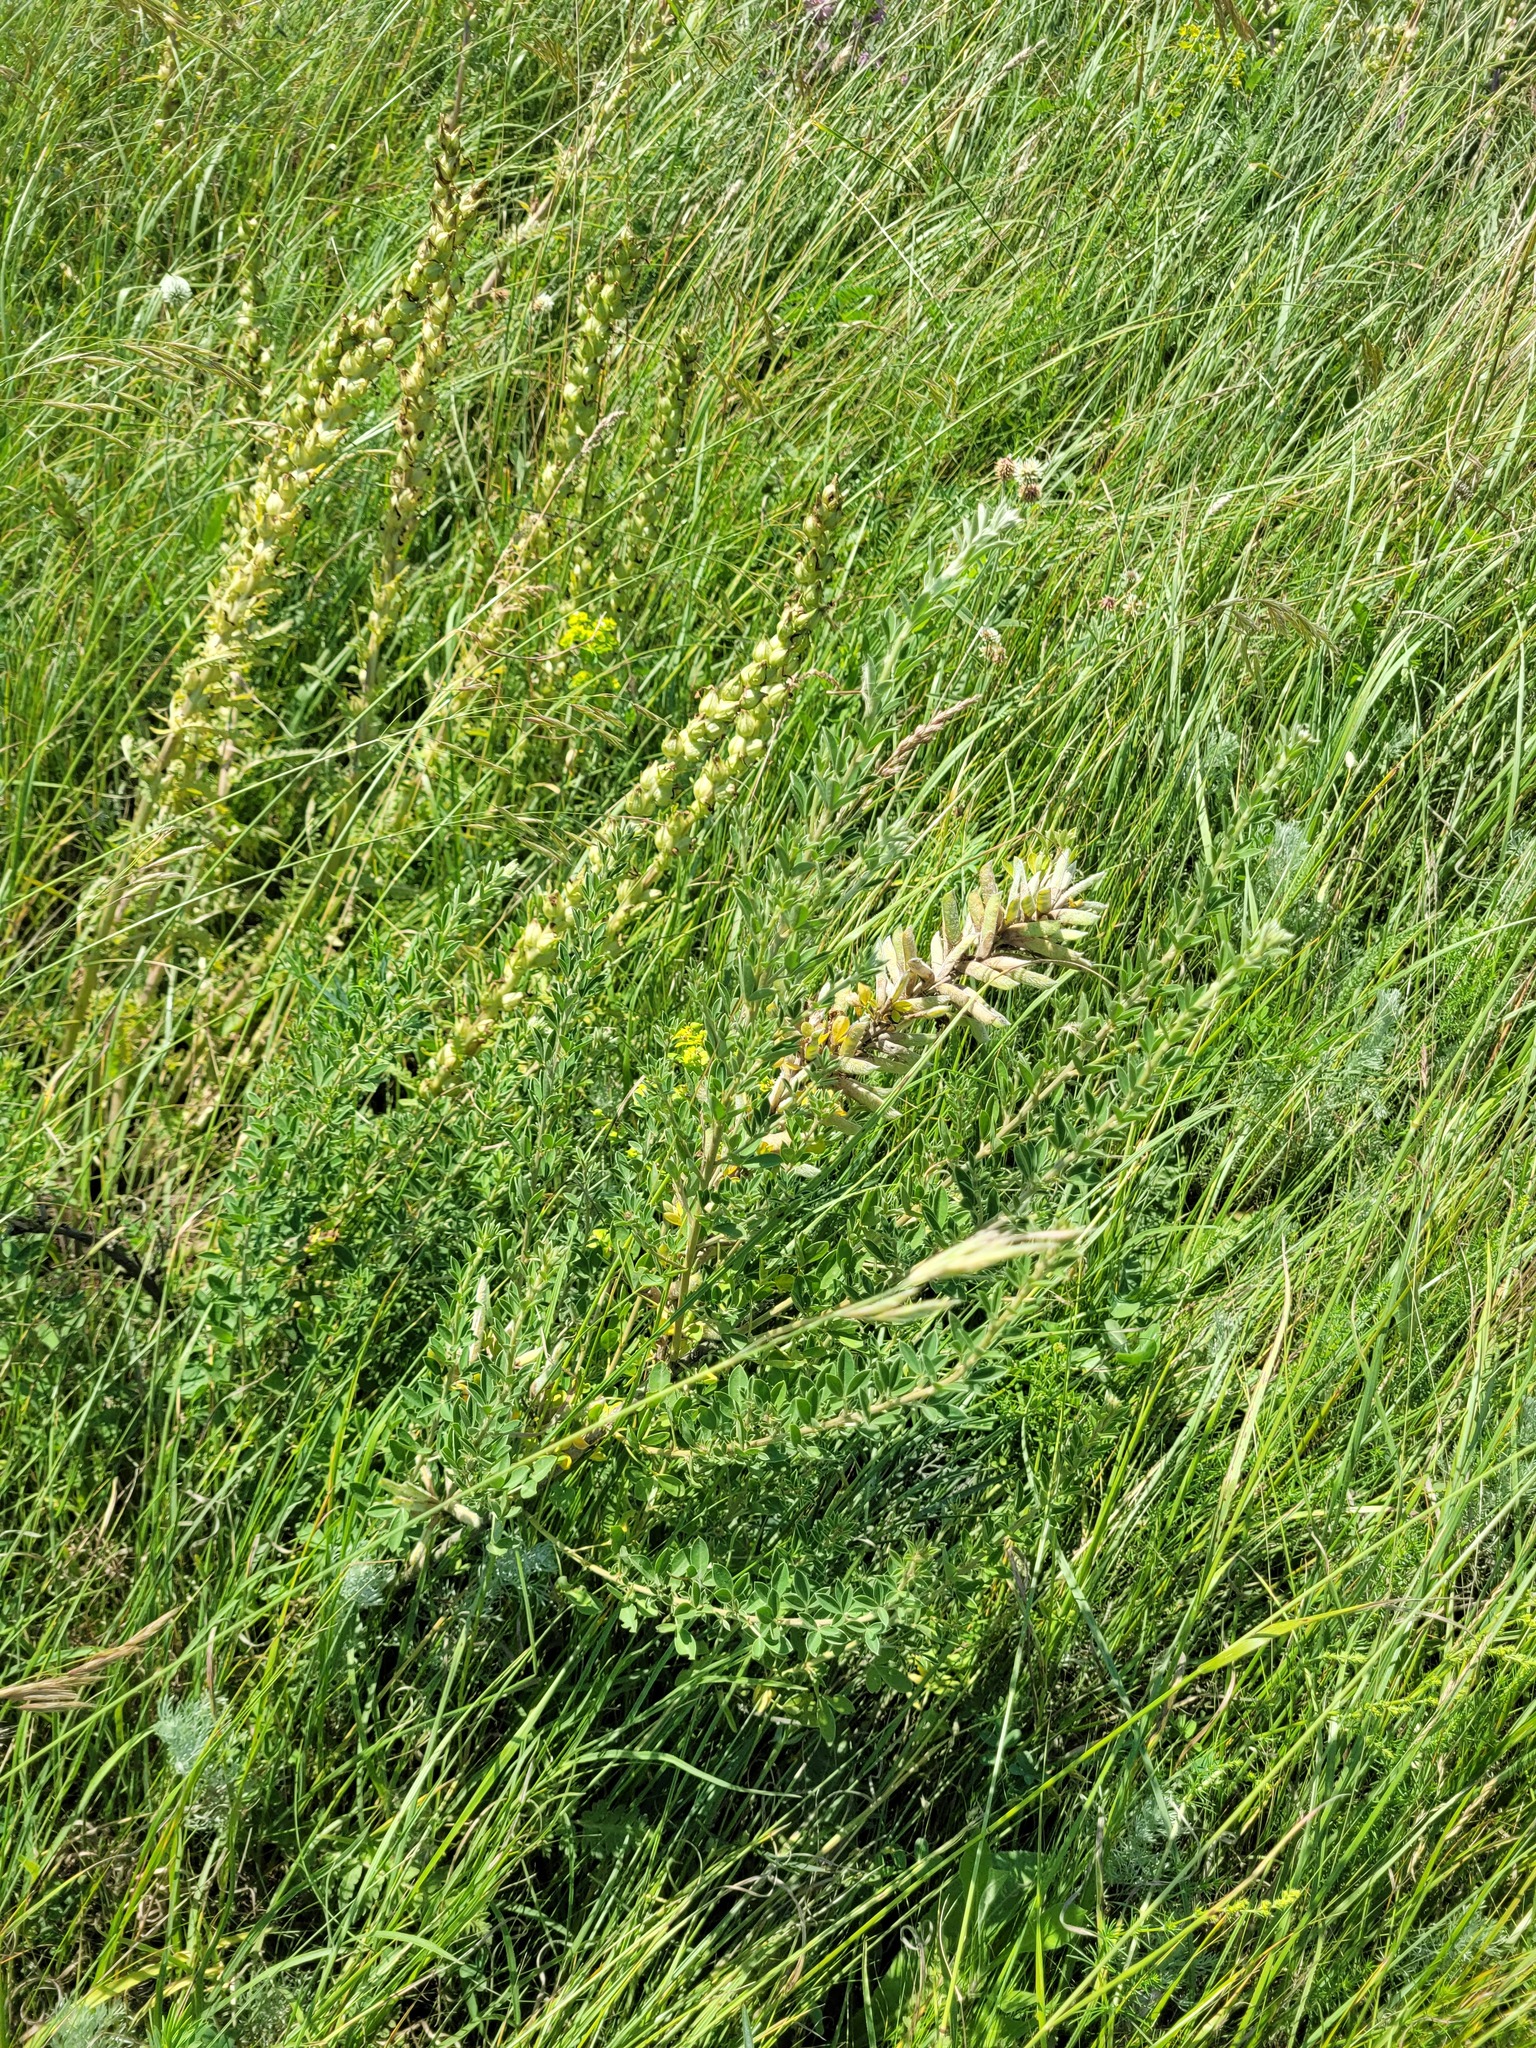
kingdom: Plantae
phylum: Tracheophyta
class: Magnoliopsida
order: Fabales
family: Fabaceae
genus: Chamaecytisus
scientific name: Chamaecytisus ruthenicus
